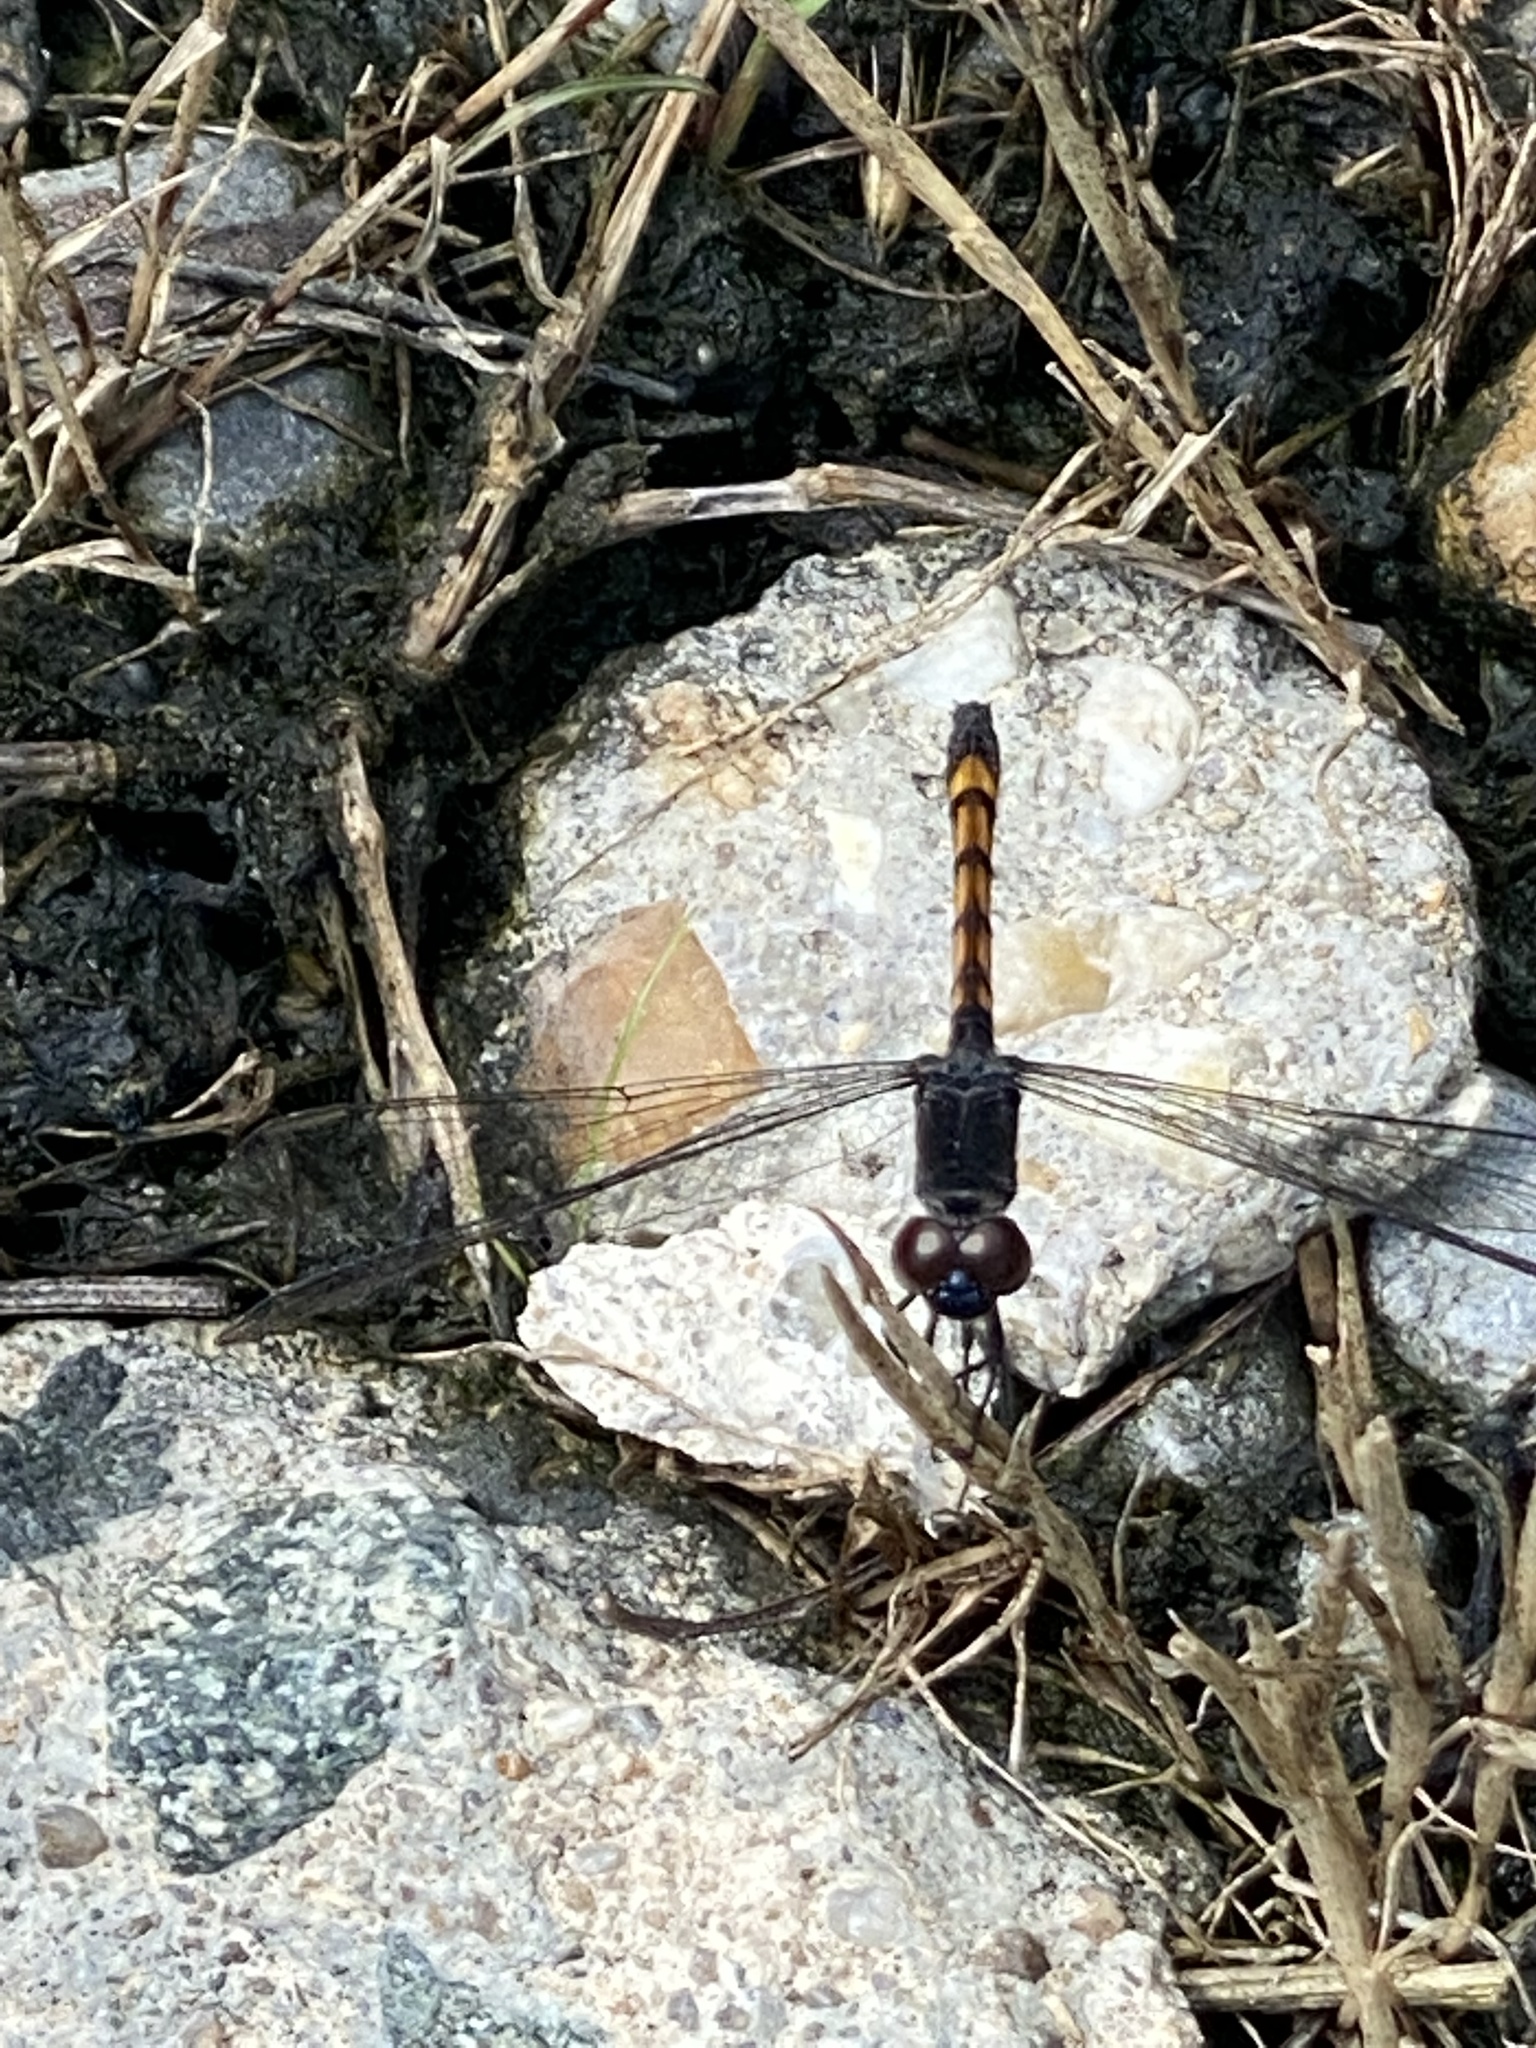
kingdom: Animalia
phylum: Arthropoda
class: Insecta
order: Odonata
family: Libellulidae
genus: Erythrodiplax
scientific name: Erythrodiplax berenice
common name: Seaside dragonlet
